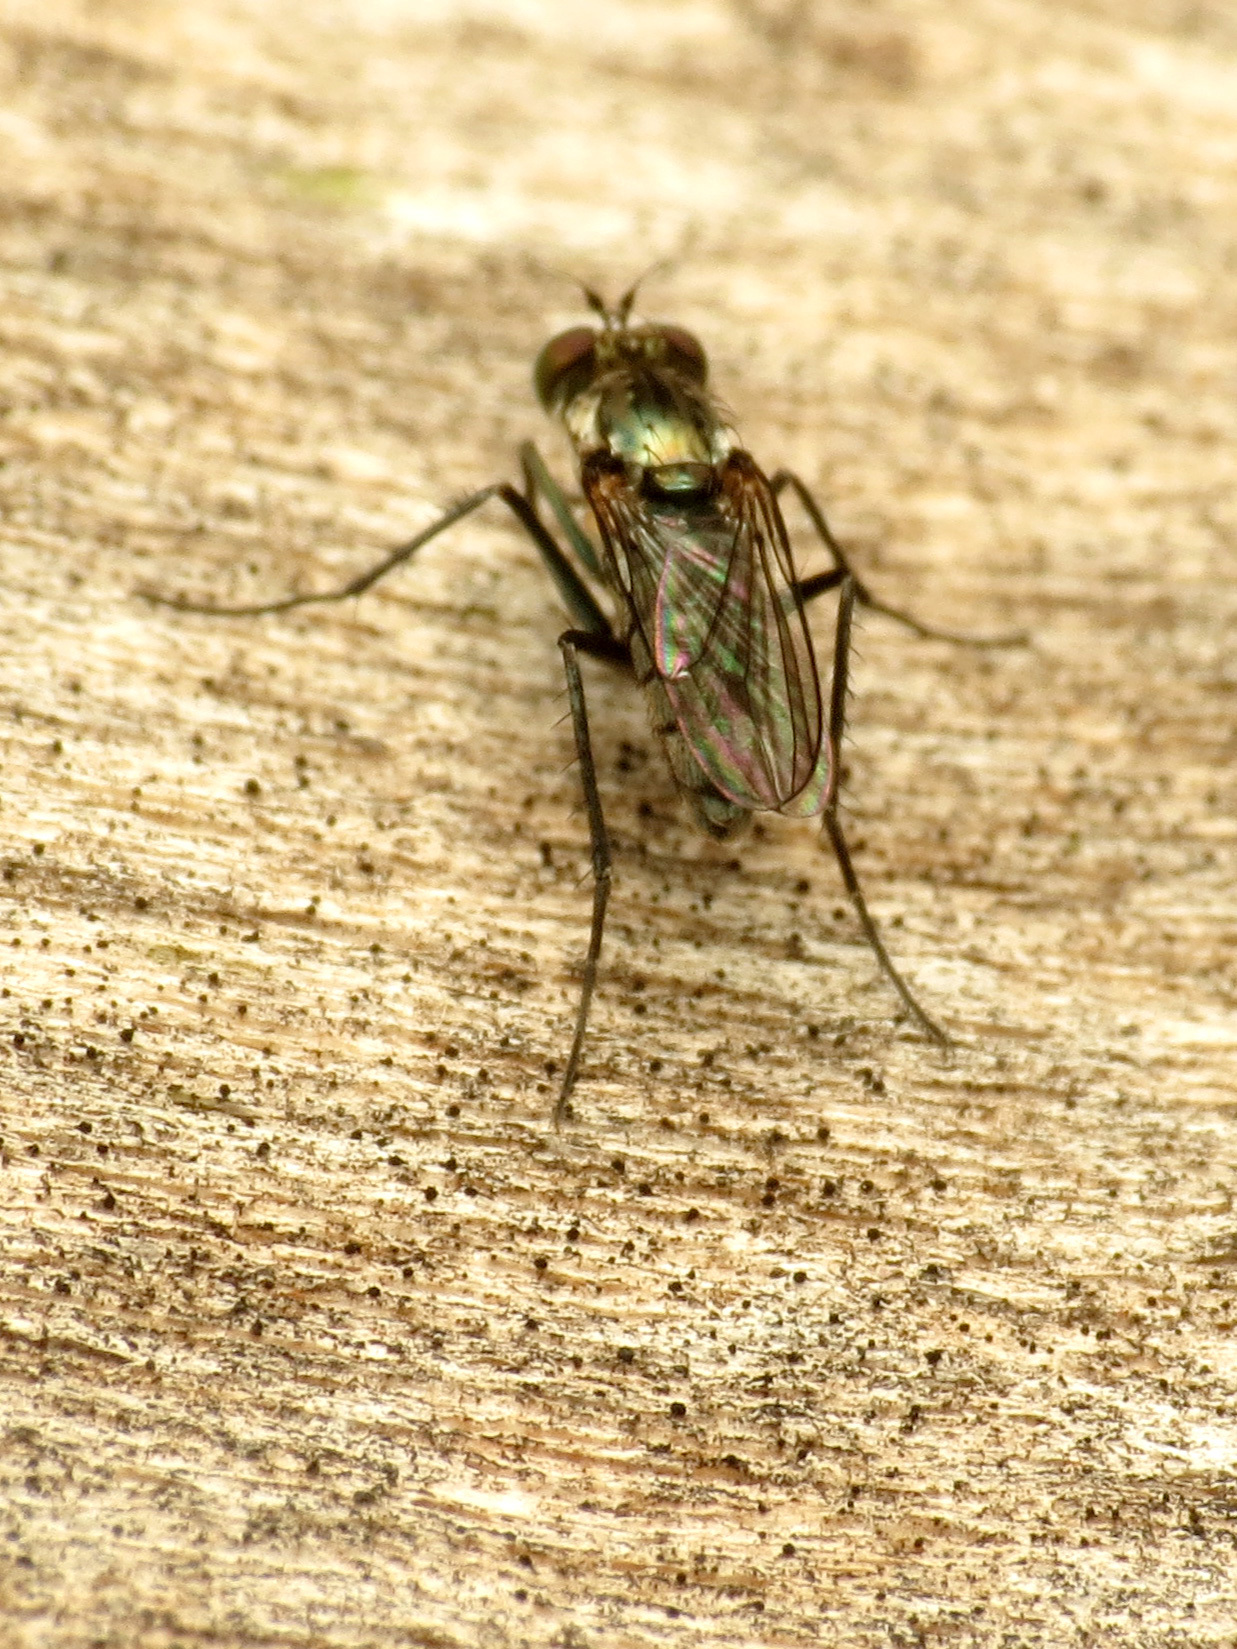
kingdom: Animalia
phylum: Arthropoda
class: Insecta
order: Diptera
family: Dolichopodidae
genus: Tachytrechus
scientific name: Tachytrechus angustipennis
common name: Long-legged fly
